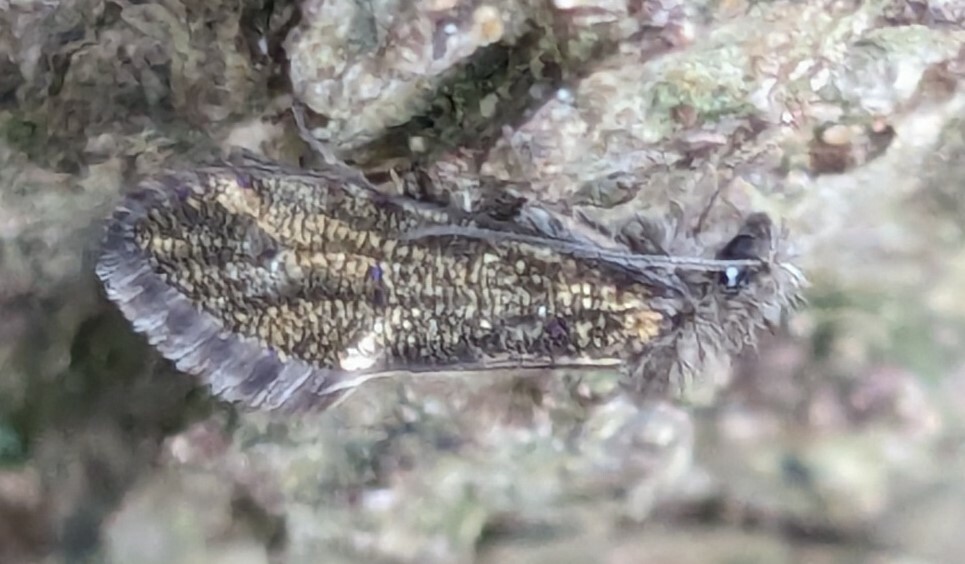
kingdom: Animalia
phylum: Arthropoda
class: Insecta
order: Lepidoptera
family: Eriocraniidae
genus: Dyseriocrania
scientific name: Dyseriocrania subpurpurella
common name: Common oak purple
